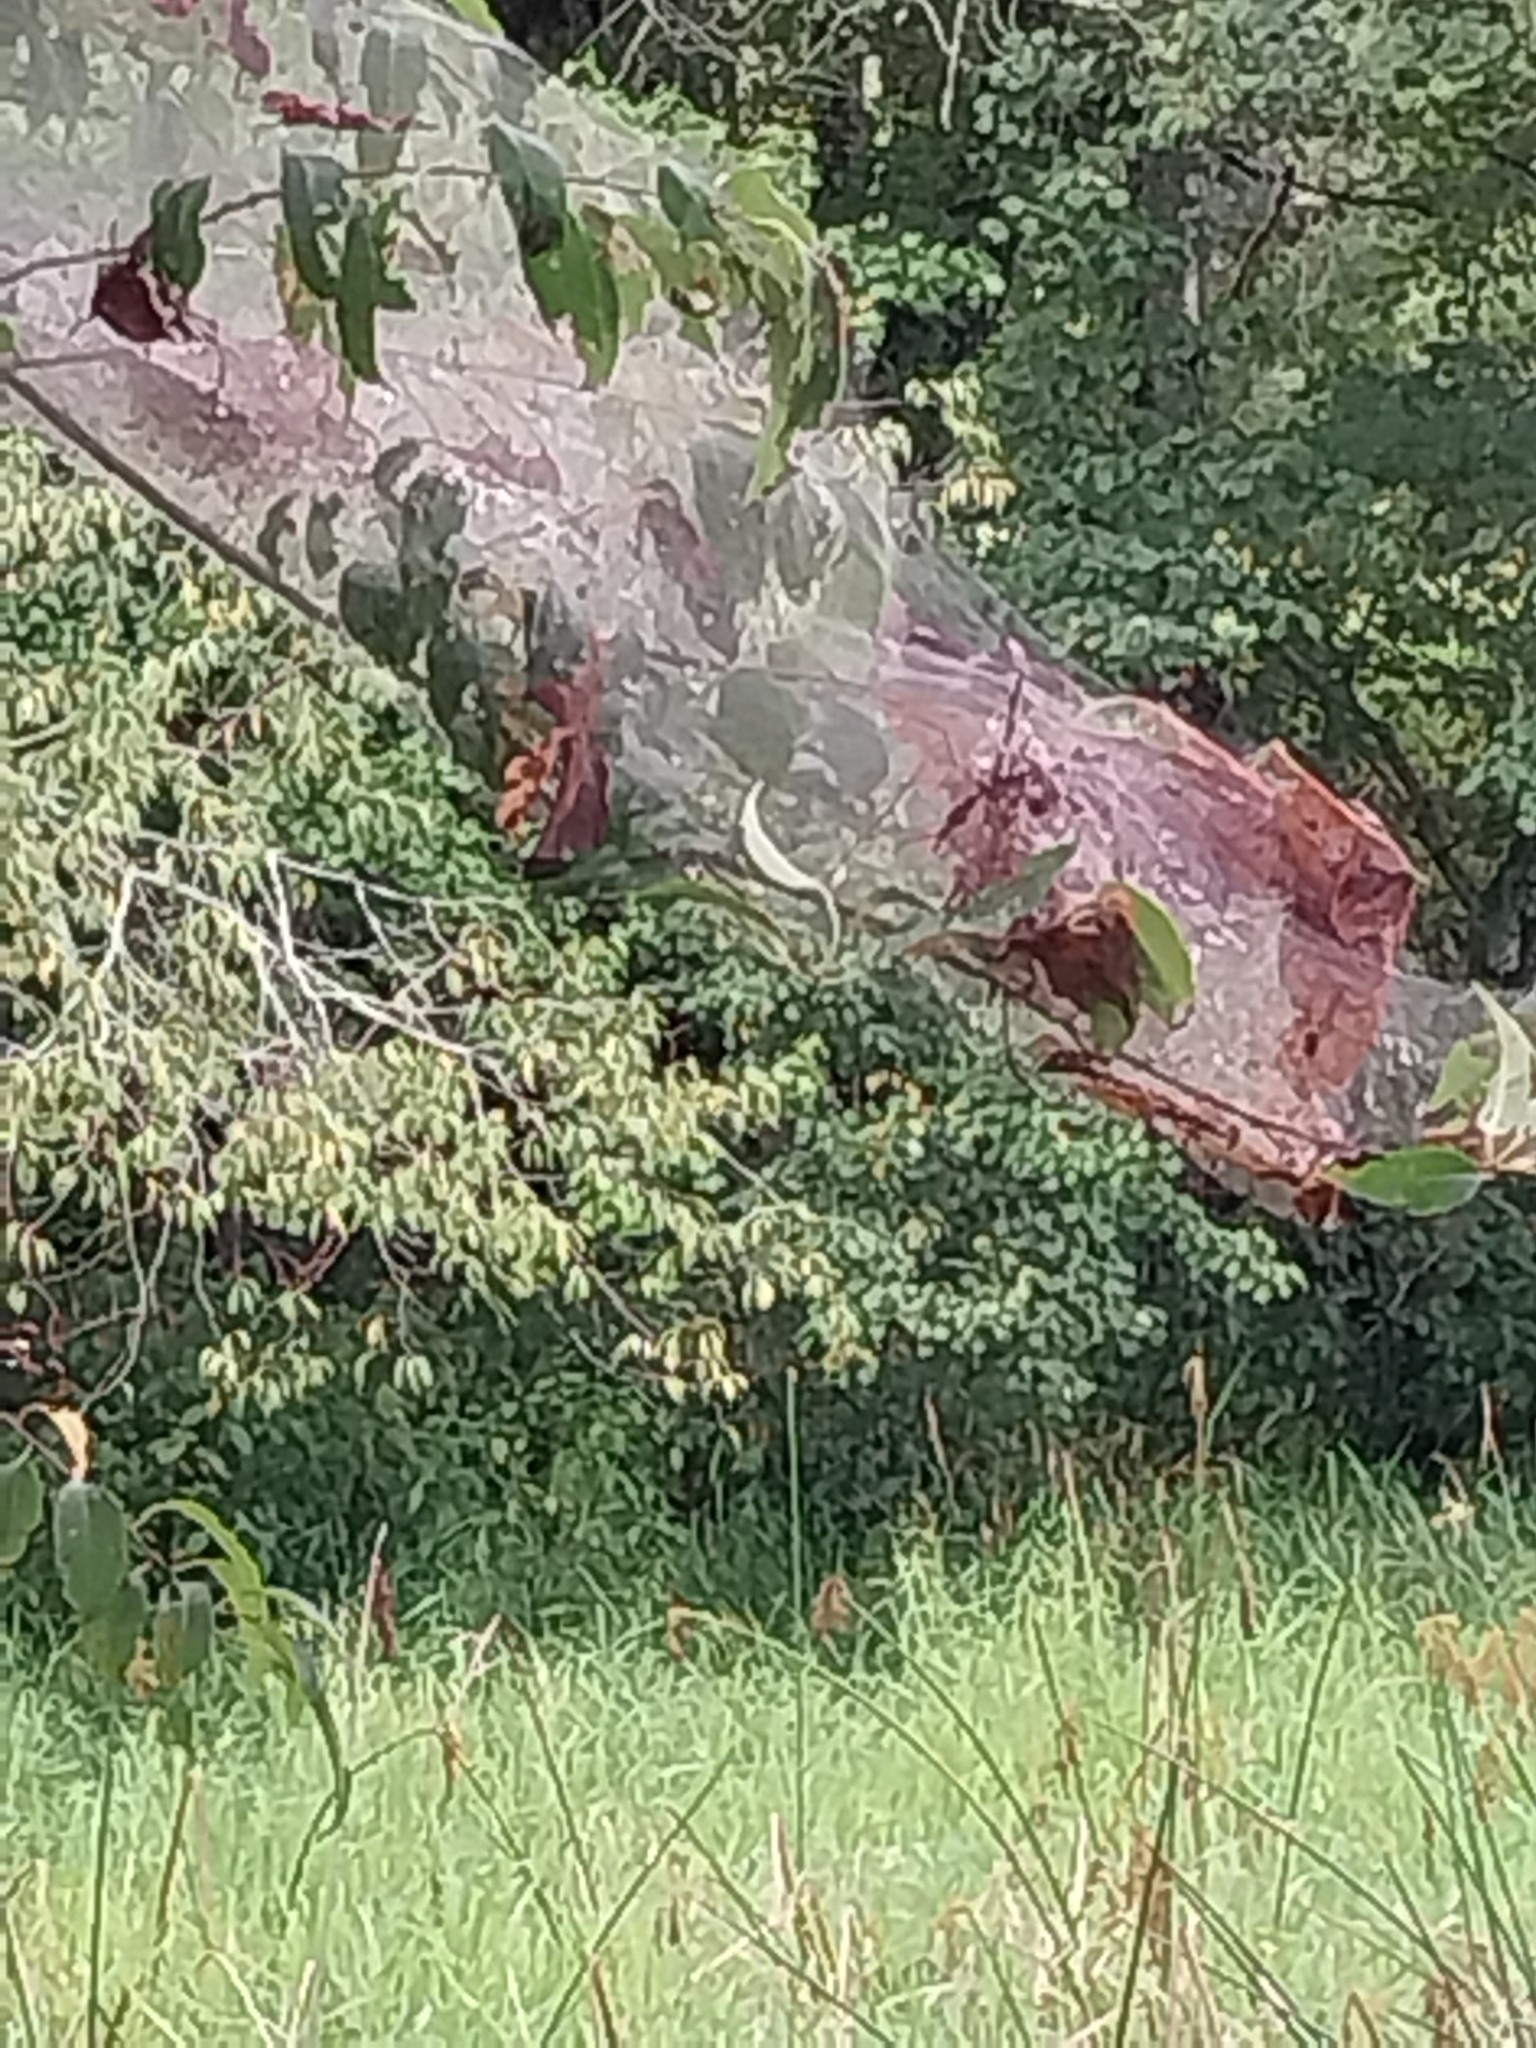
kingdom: Animalia
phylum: Arthropoda
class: Insecta
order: Lepidoptera
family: Erebidae
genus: Hyphantria
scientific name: Hyphantria cunea
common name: American white moth
